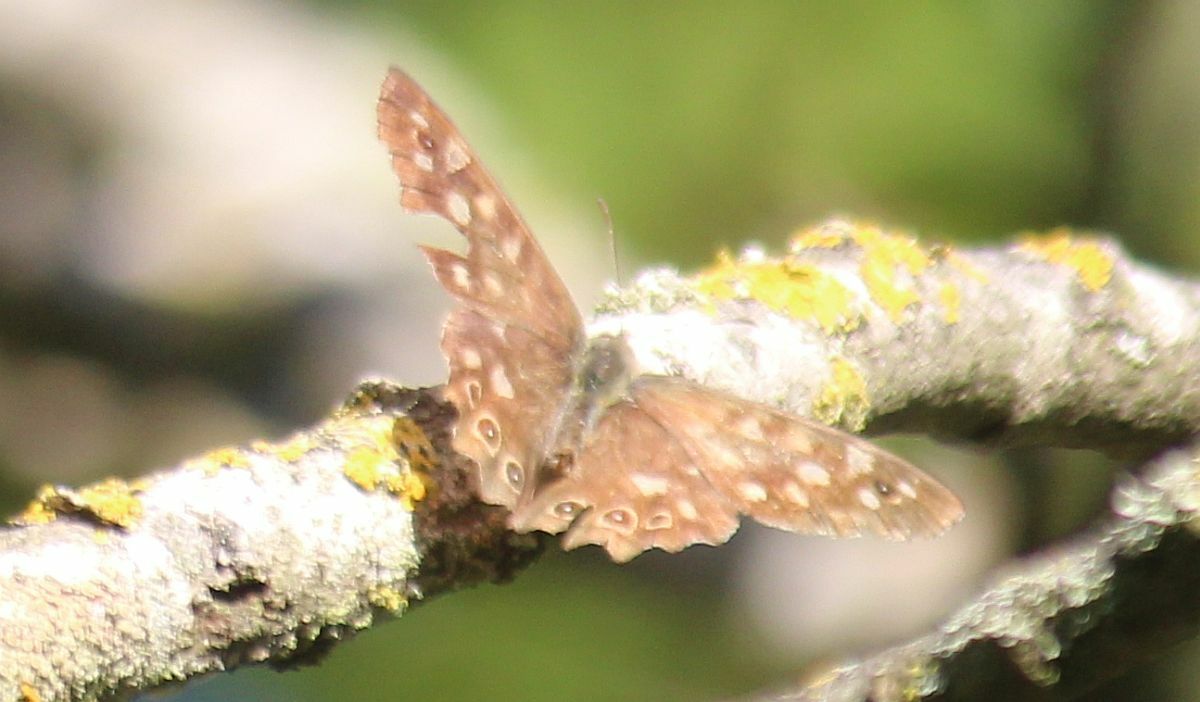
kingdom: Animalia
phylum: Arthropoda
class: Insecta
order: Lepidoptera
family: Nymphalidae
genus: Pararge
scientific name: Pararge aegeria
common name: Speckled wood
